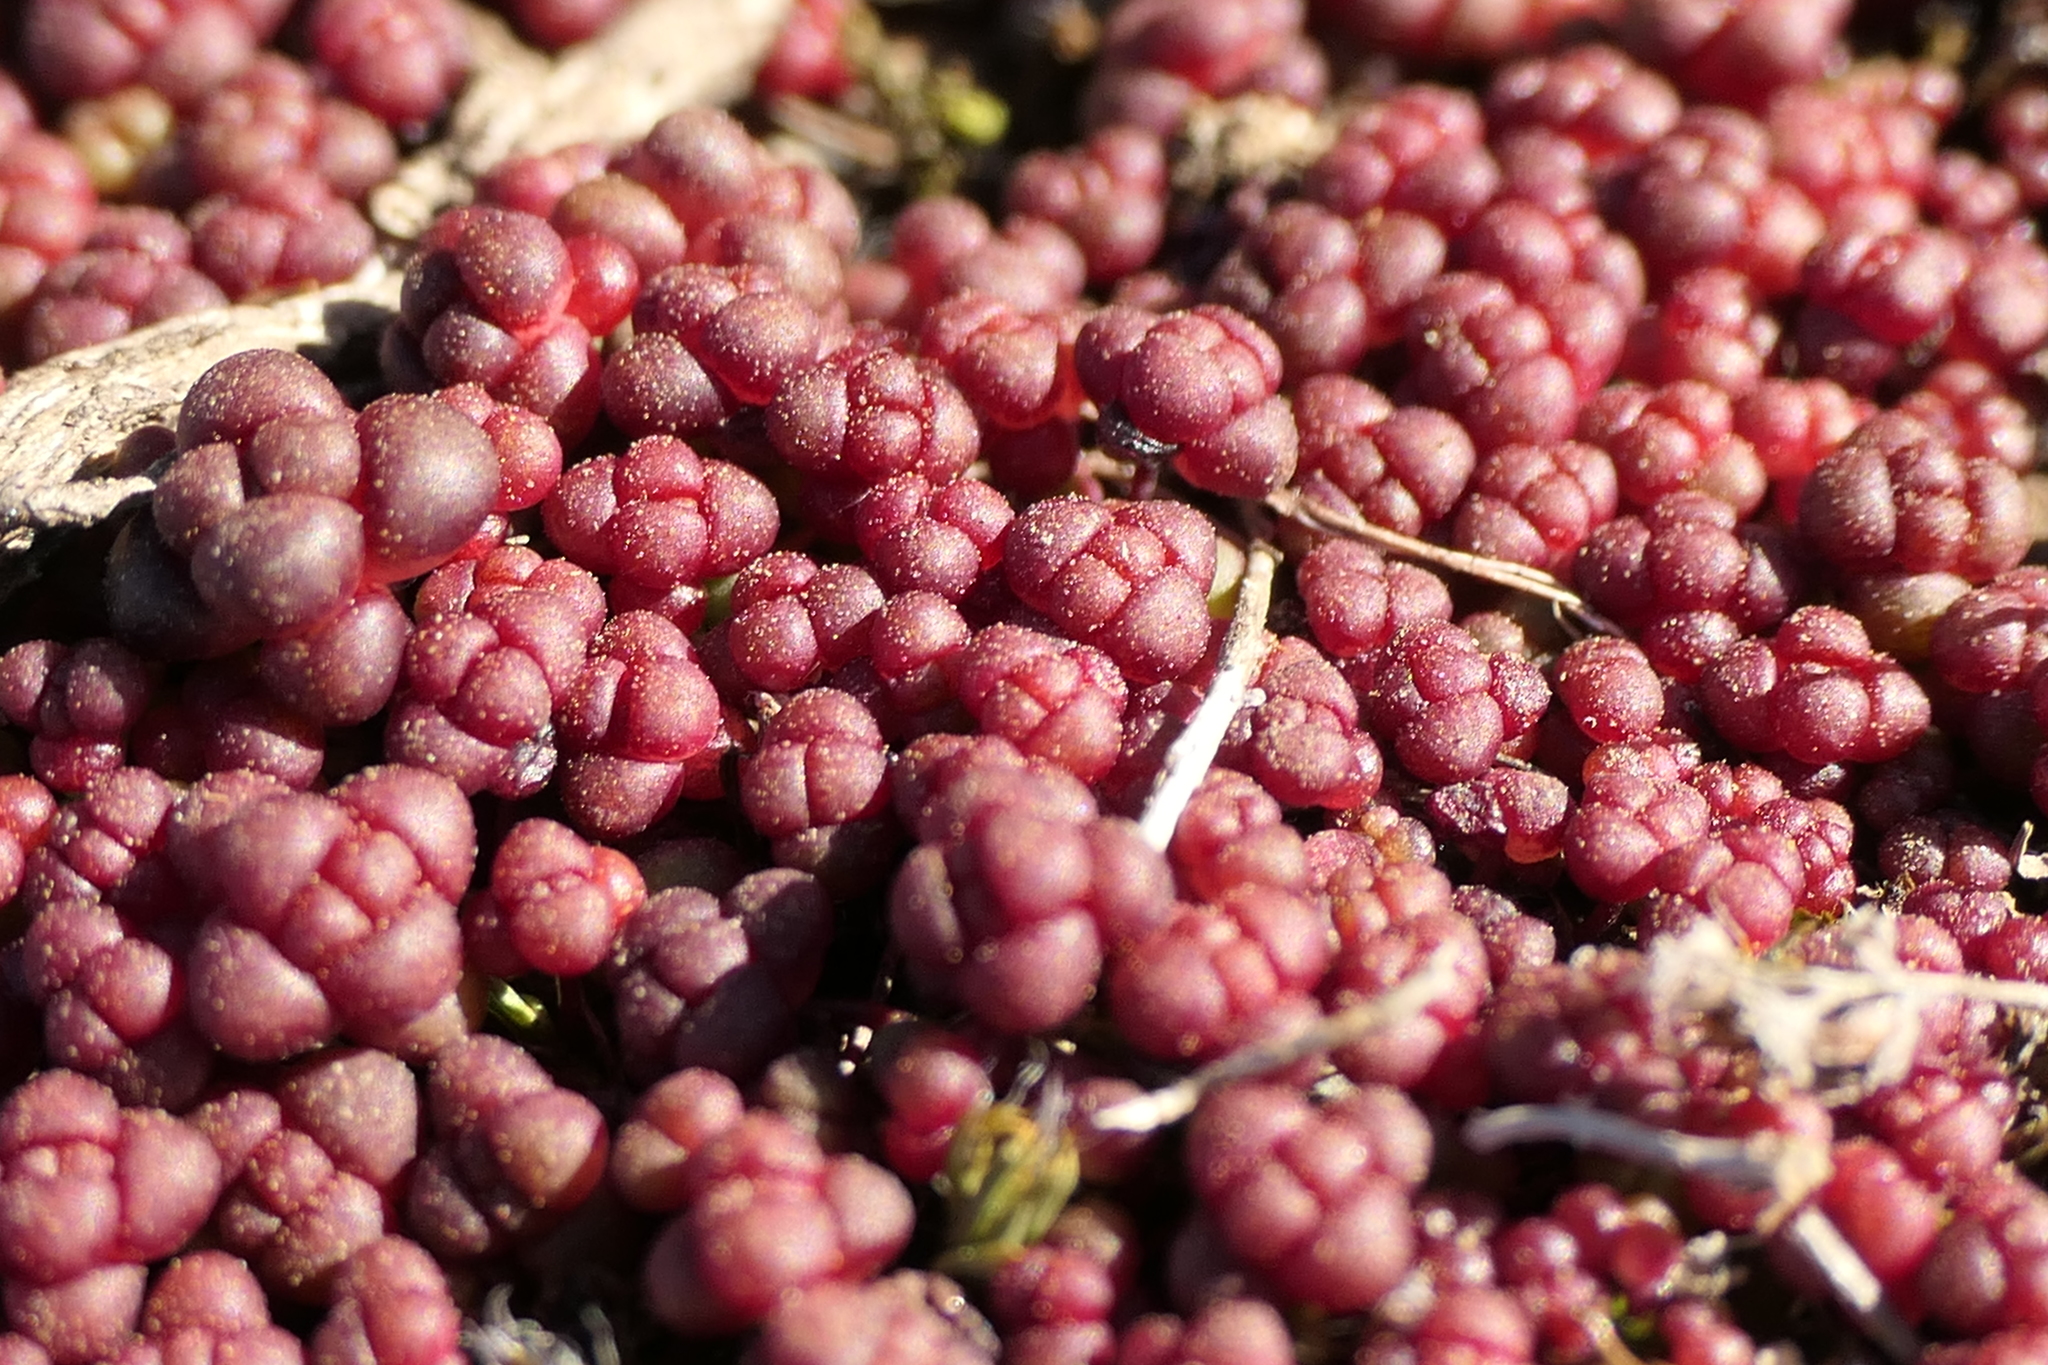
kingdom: Plantae
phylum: Tracheophyta
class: Magnoliopsida
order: Saxifragales
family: Crassulaceae
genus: Sedum
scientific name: Sedum andegavense
